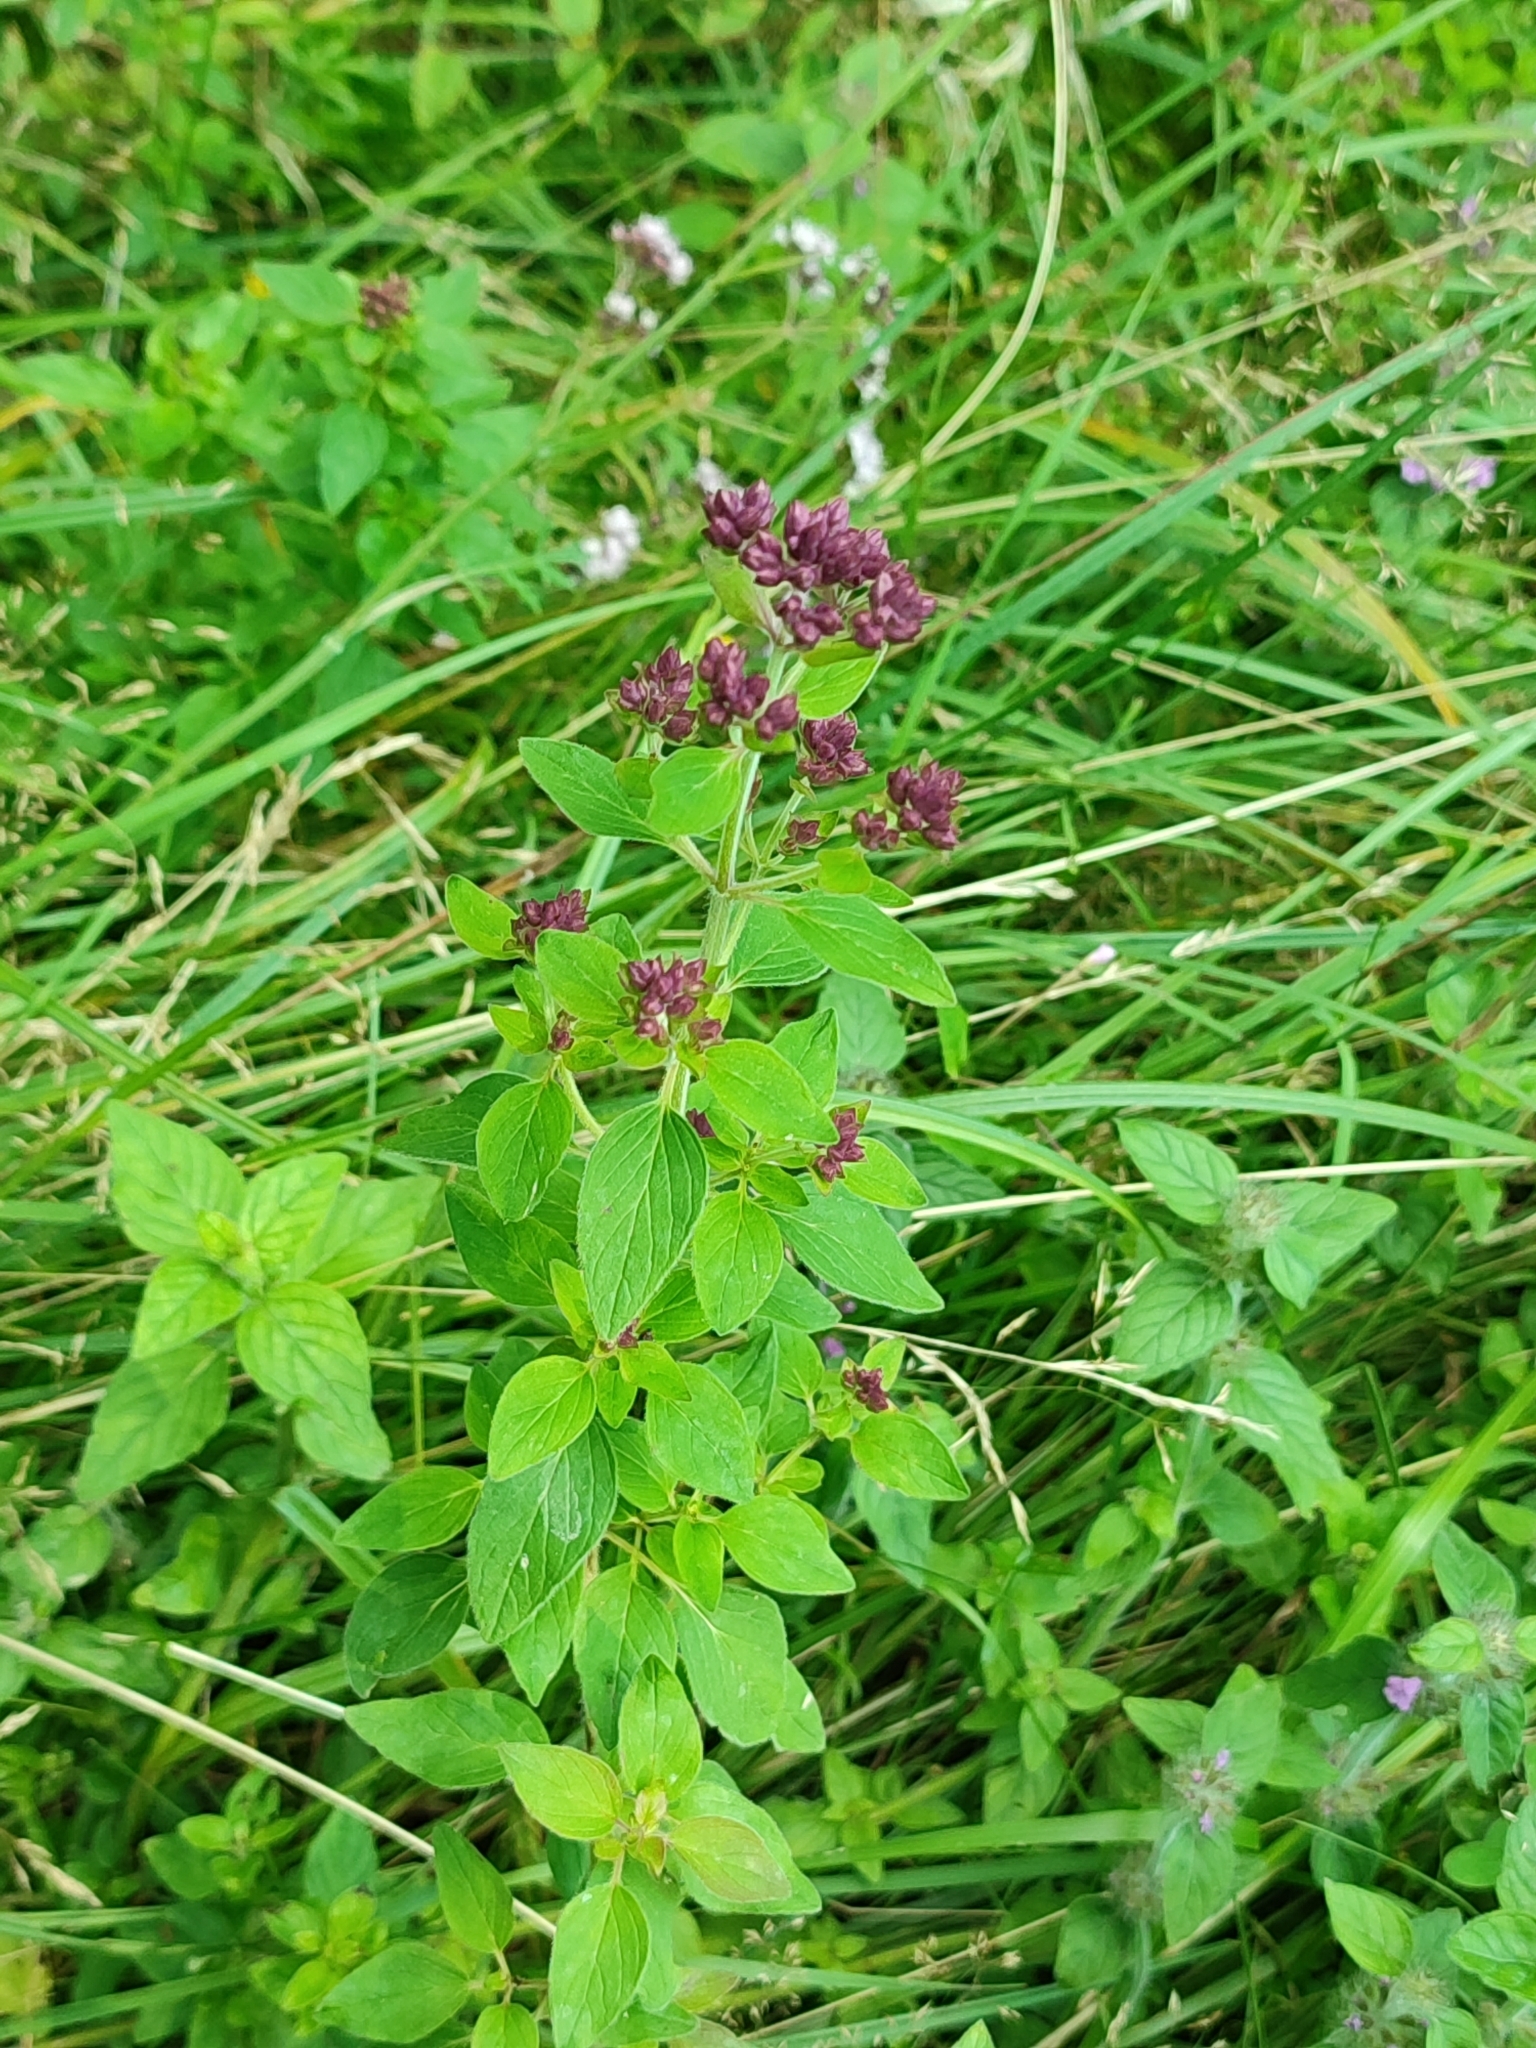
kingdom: Plantae
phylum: Tracheophyta
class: Magnoliopsida
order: Lamiales
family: Lamiaceae
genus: Origanum
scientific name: Origanum vulgare
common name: Wild marjoram
